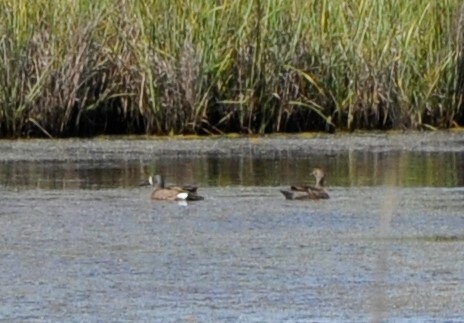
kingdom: Animalia
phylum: Chordata
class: Aves
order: Anseriformes
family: Anatidae
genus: Spatula
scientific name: Spatula discors
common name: Blue-winged teal
